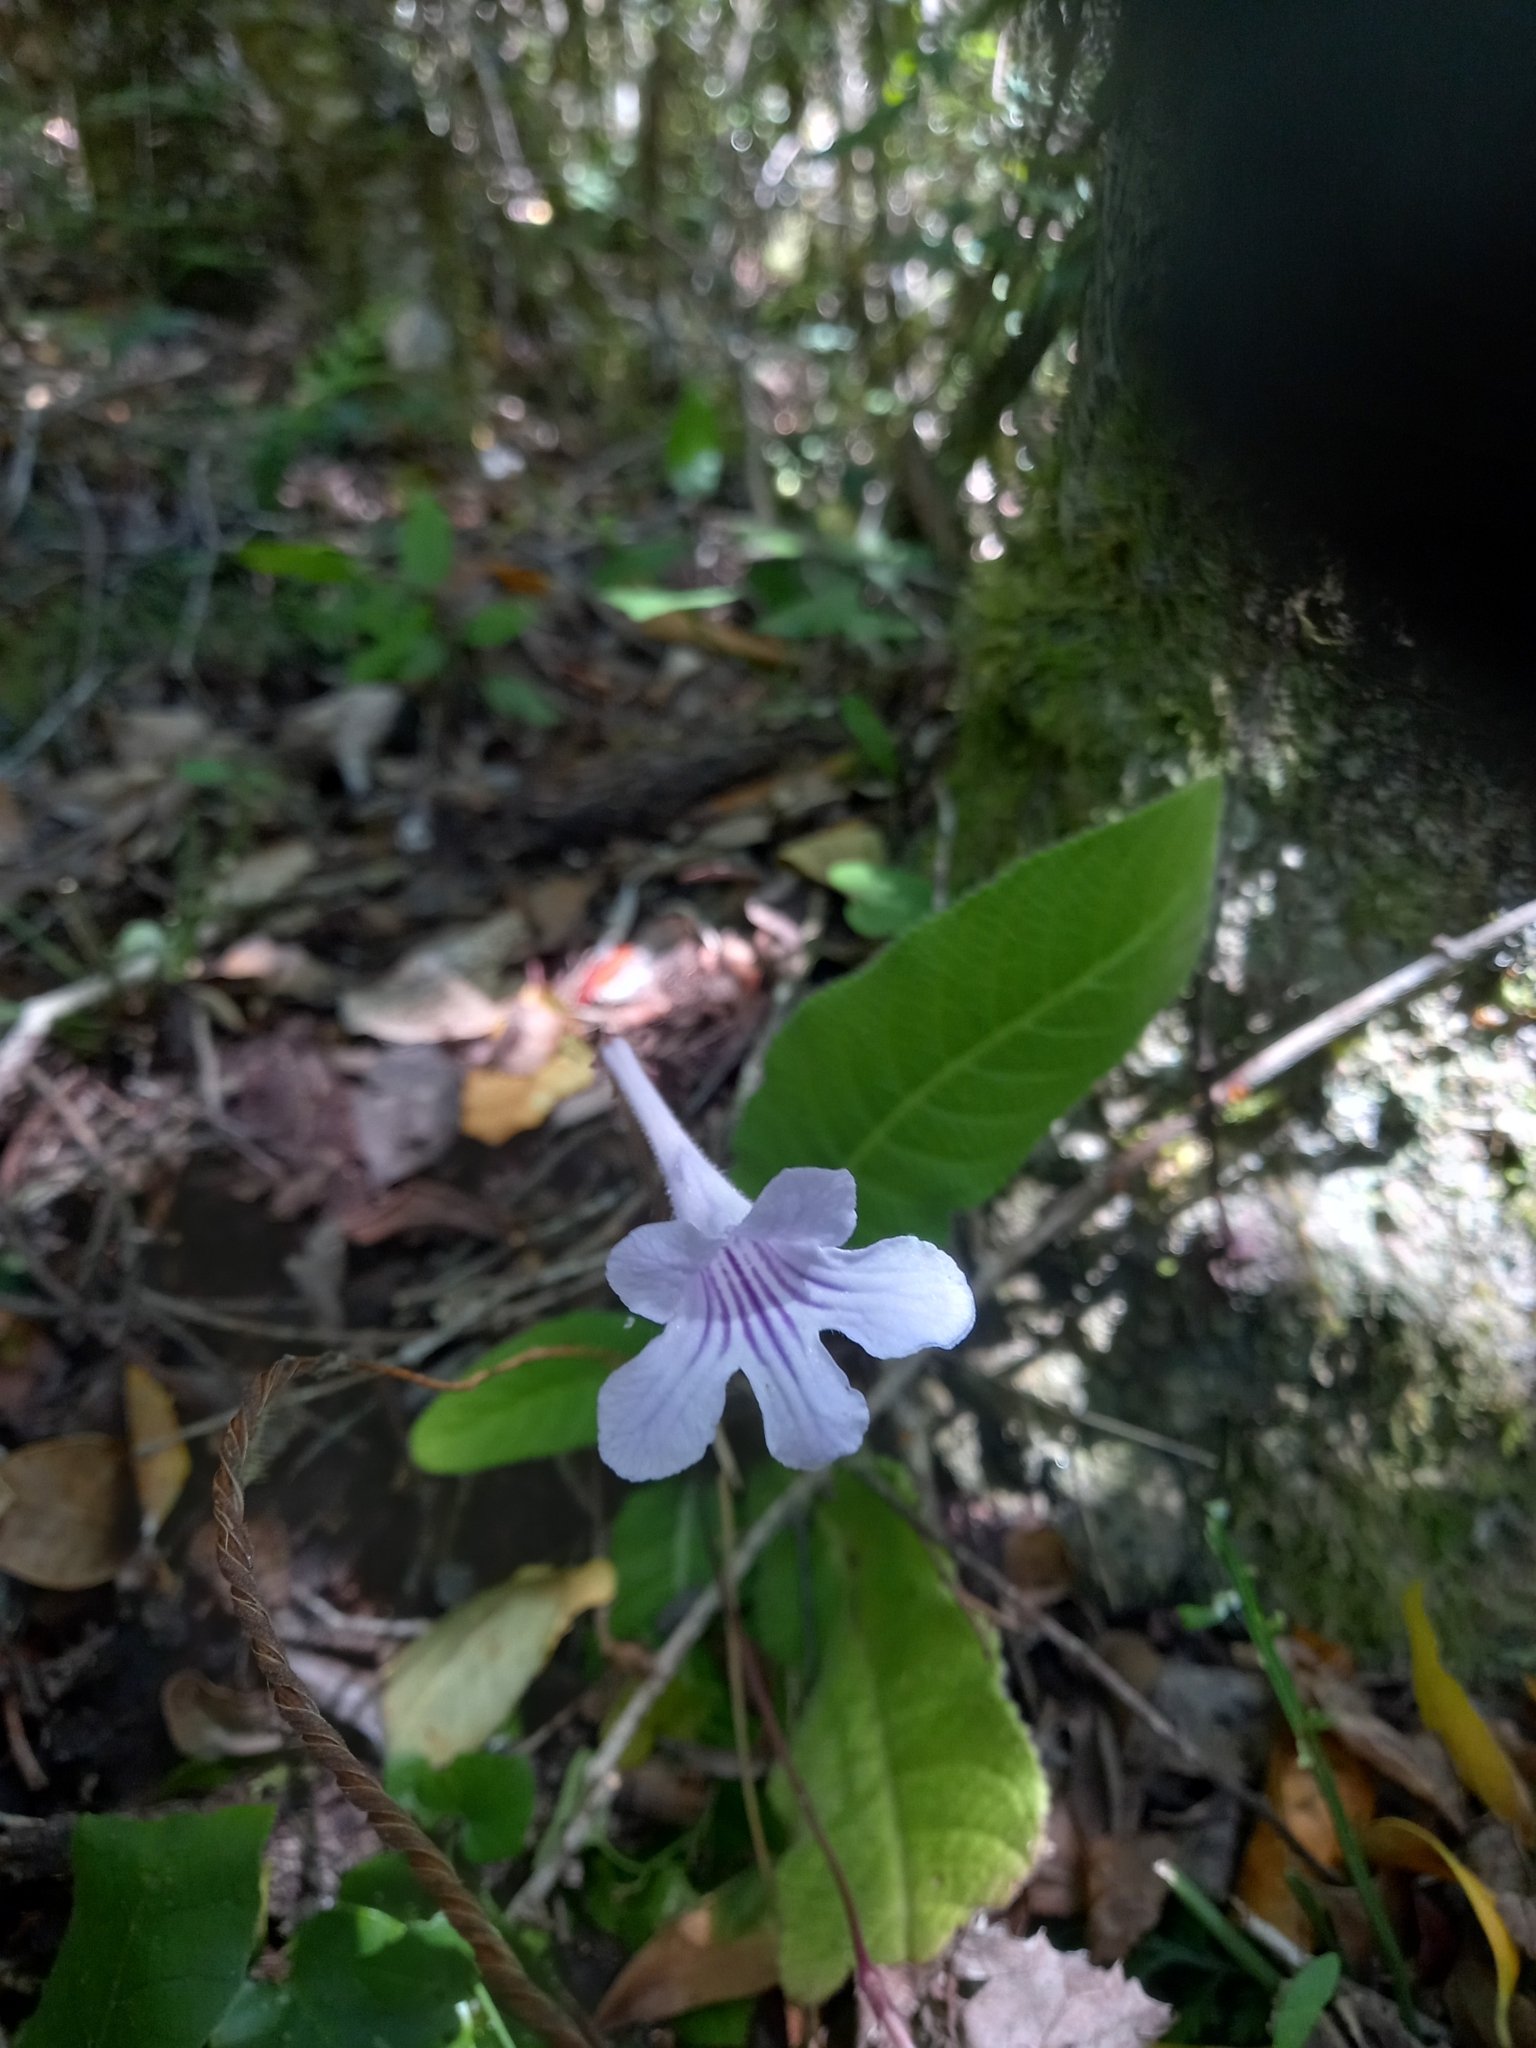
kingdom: Plantae
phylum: Tracheophyta
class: Magnoliopsida
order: Lamiales
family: Gesneriaceae
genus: Streptocarpus
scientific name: Streptocarpus rexii
